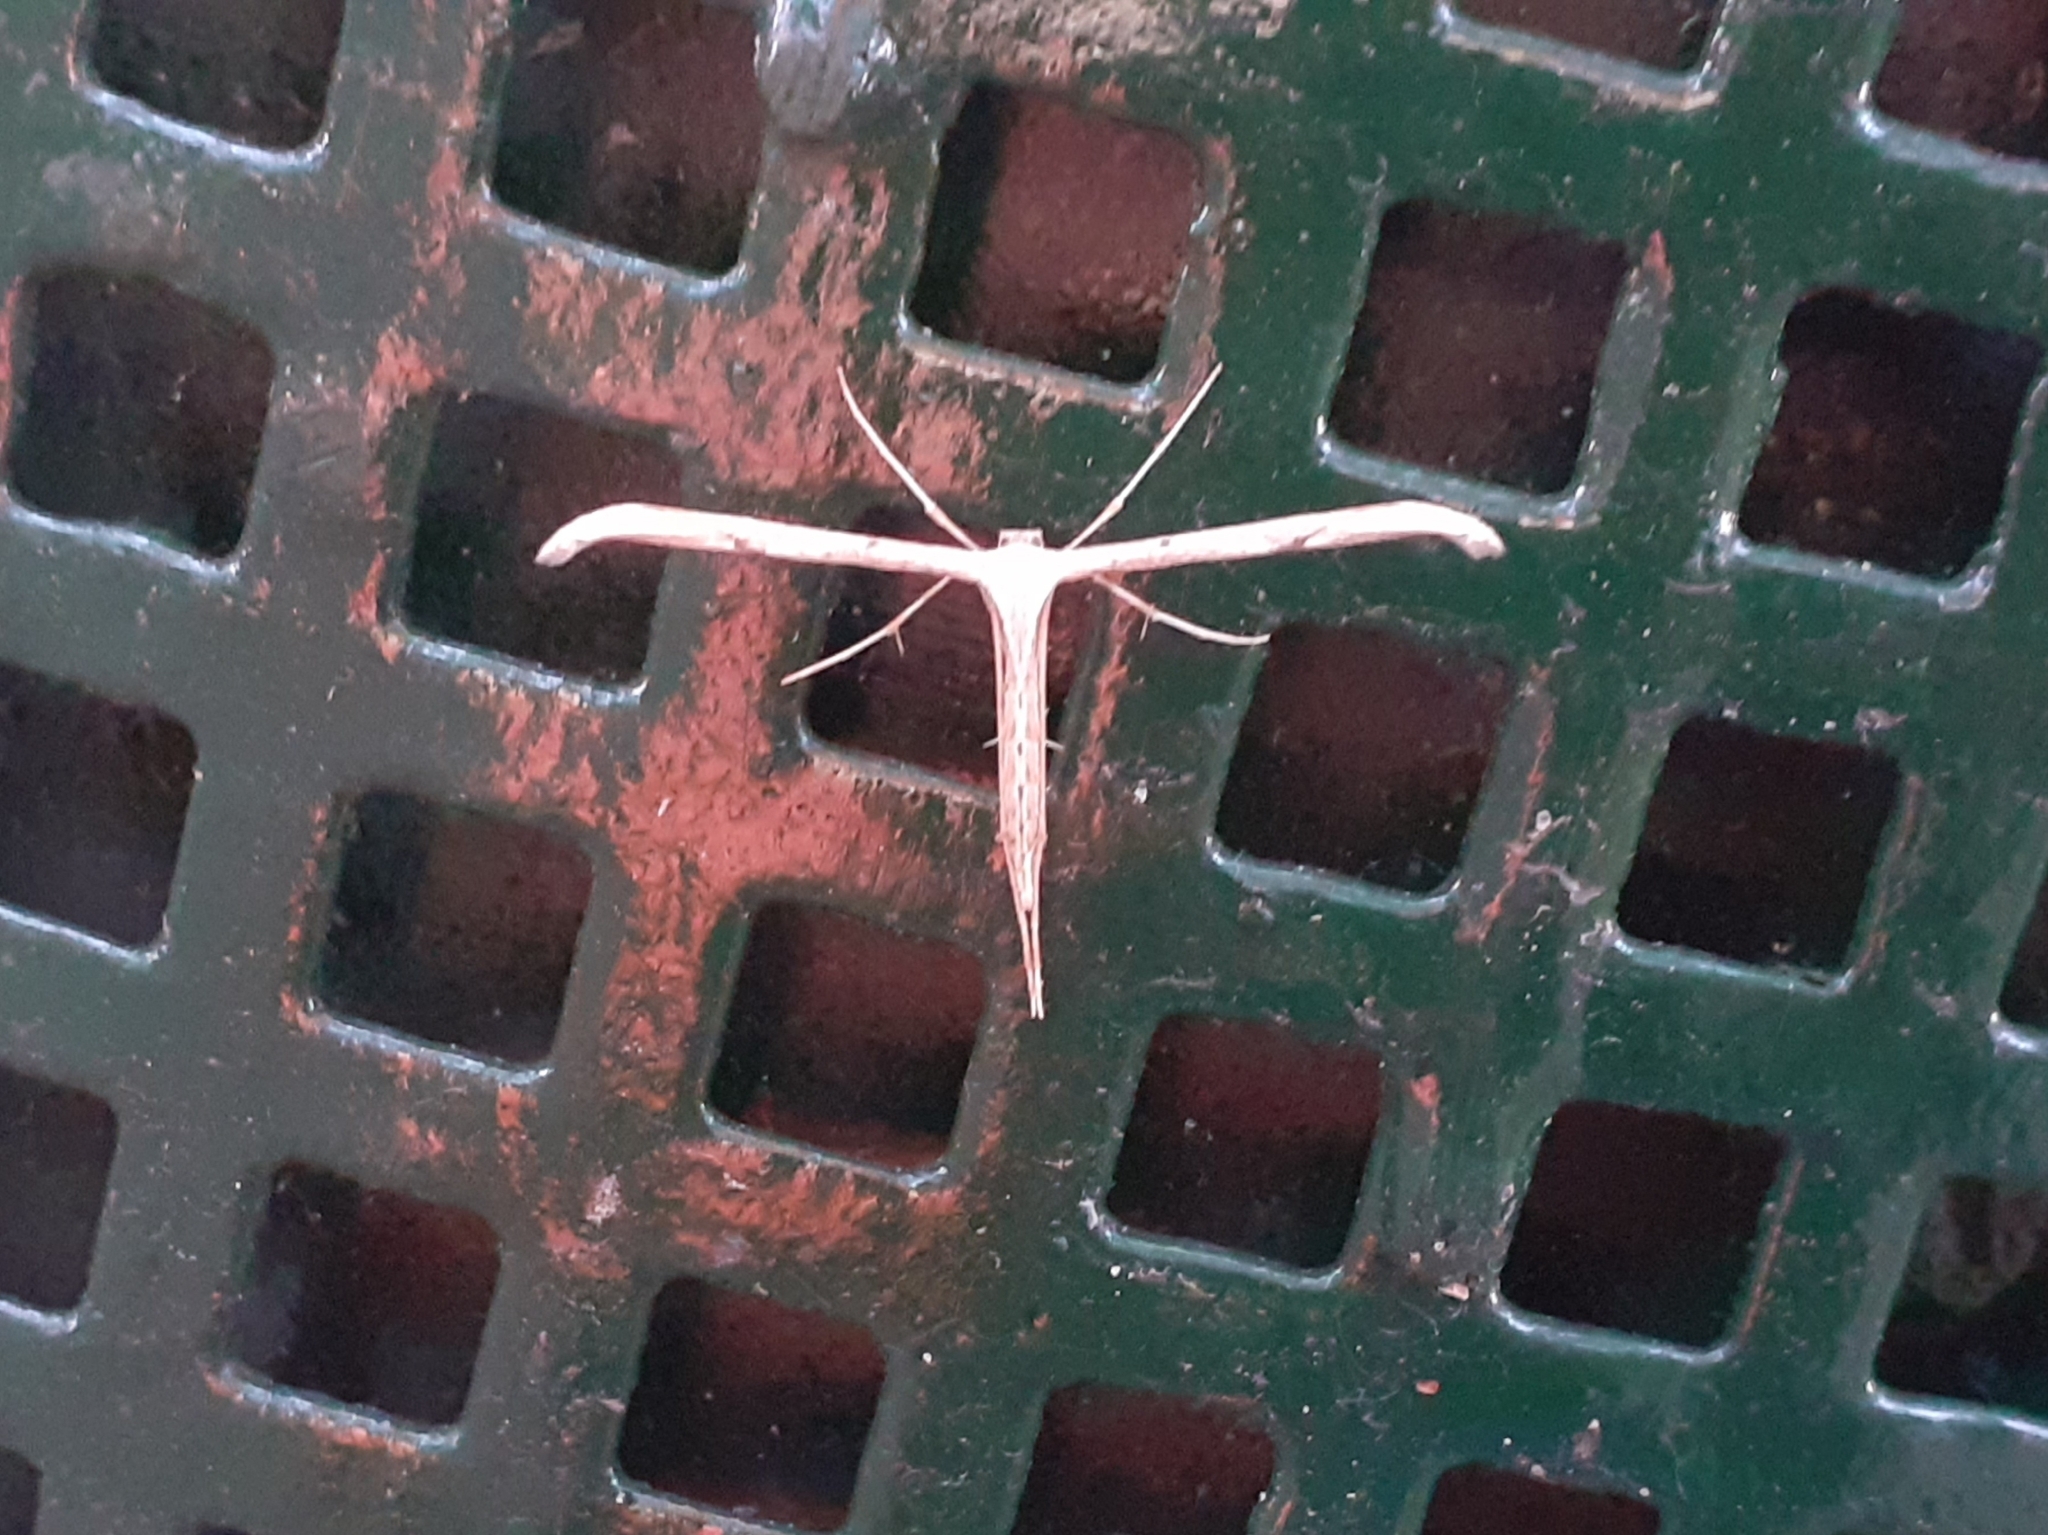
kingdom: Animalia
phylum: Arthropoda
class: Insecta
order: Lepidoptera
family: Pterophoridae
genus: Emmelina
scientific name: Emmelina monodactyla
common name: Common plume
